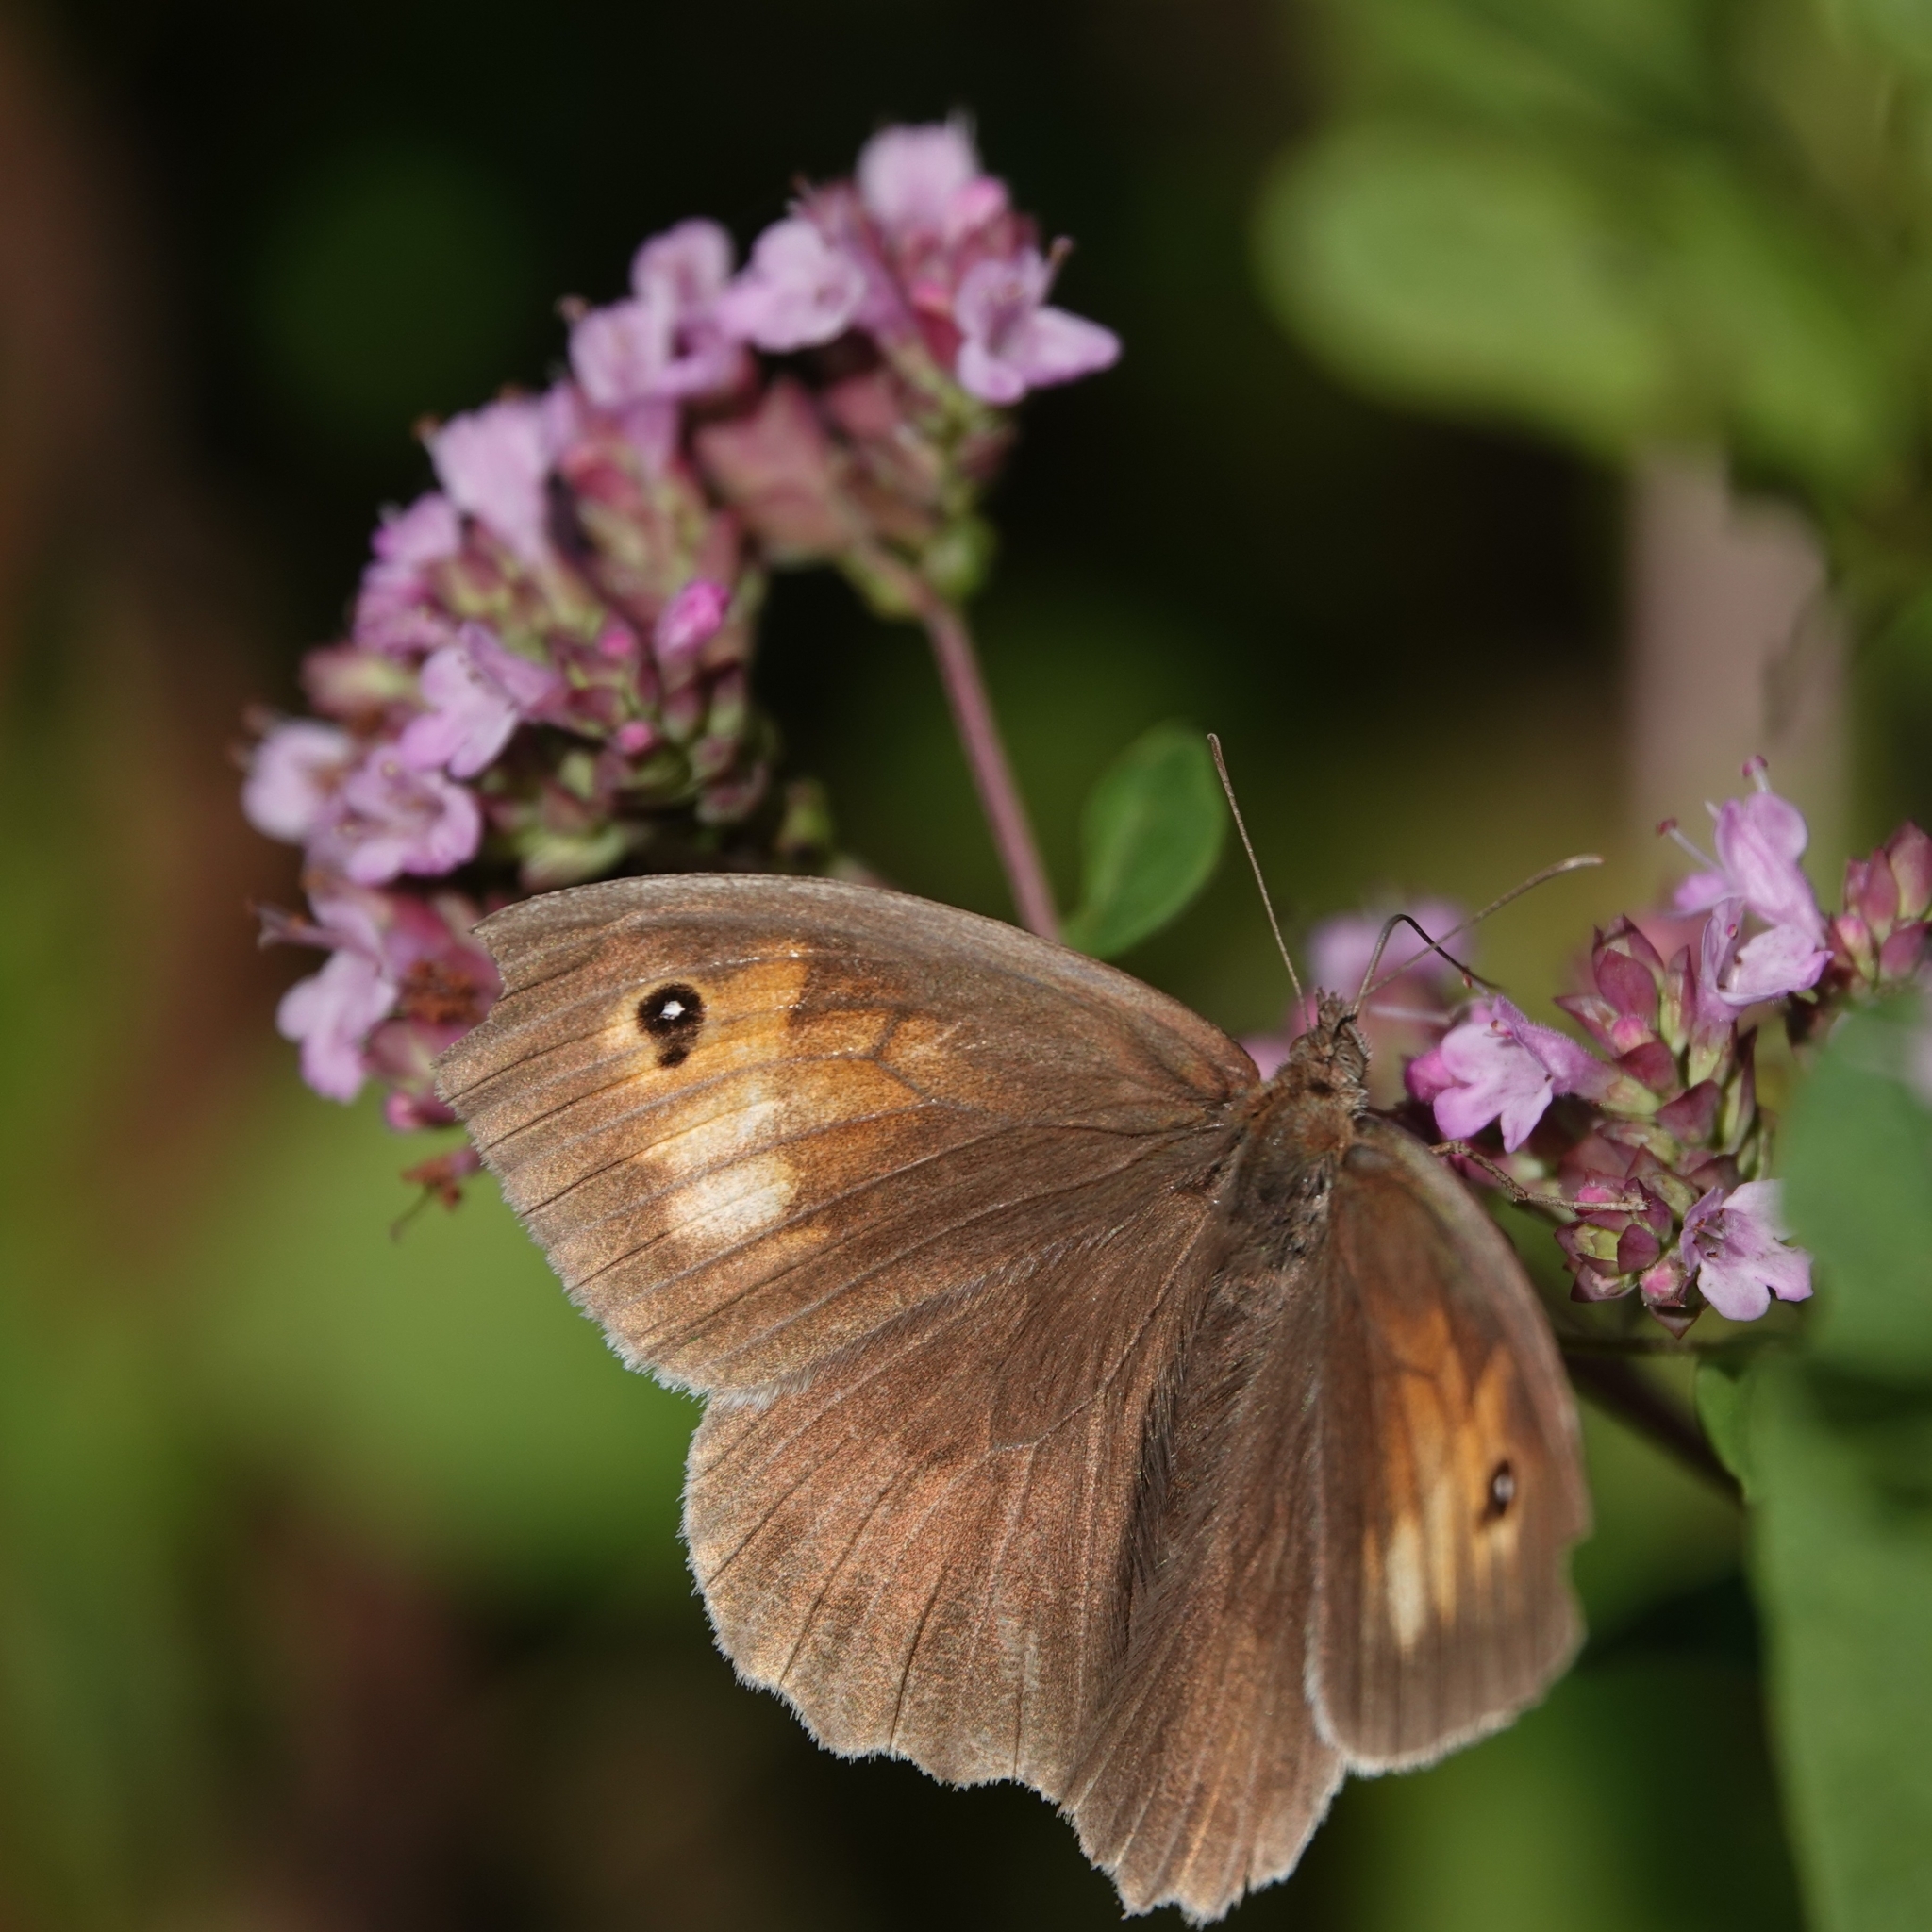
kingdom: Animalia
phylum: Arthropoda
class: Insecta
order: Lepidoptera
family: Nymphalidae
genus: Maniola
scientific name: Maniola jurtina
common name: Meadow brown
